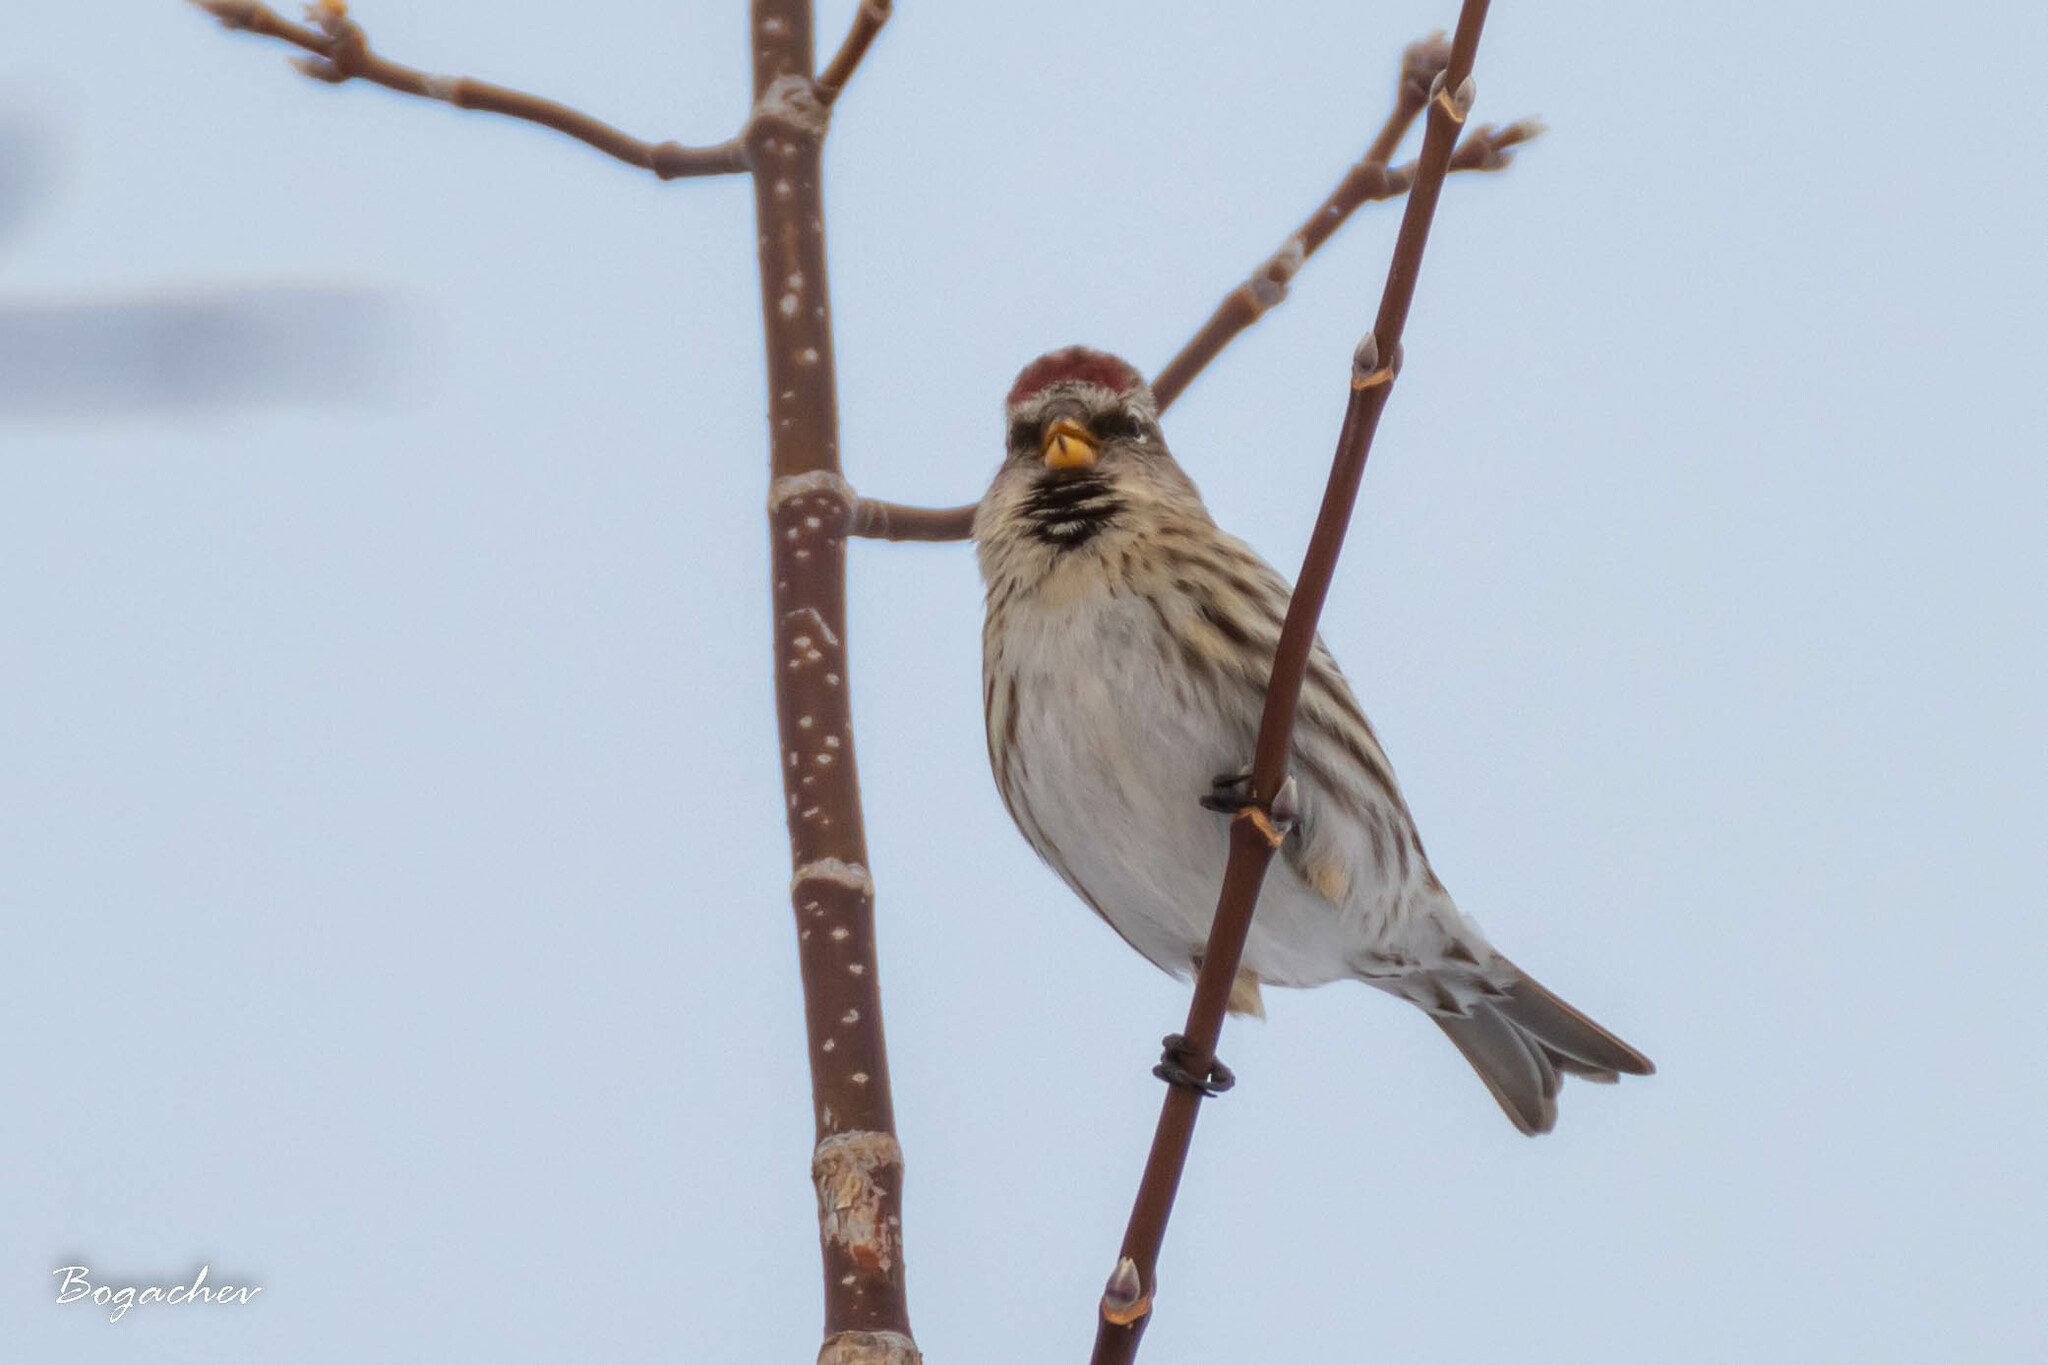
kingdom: Animalia
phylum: Chordata
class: Aves
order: Passeriformes
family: Fringillidae
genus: Acanthis
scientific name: Acanthis flammea
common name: Common redpoll
